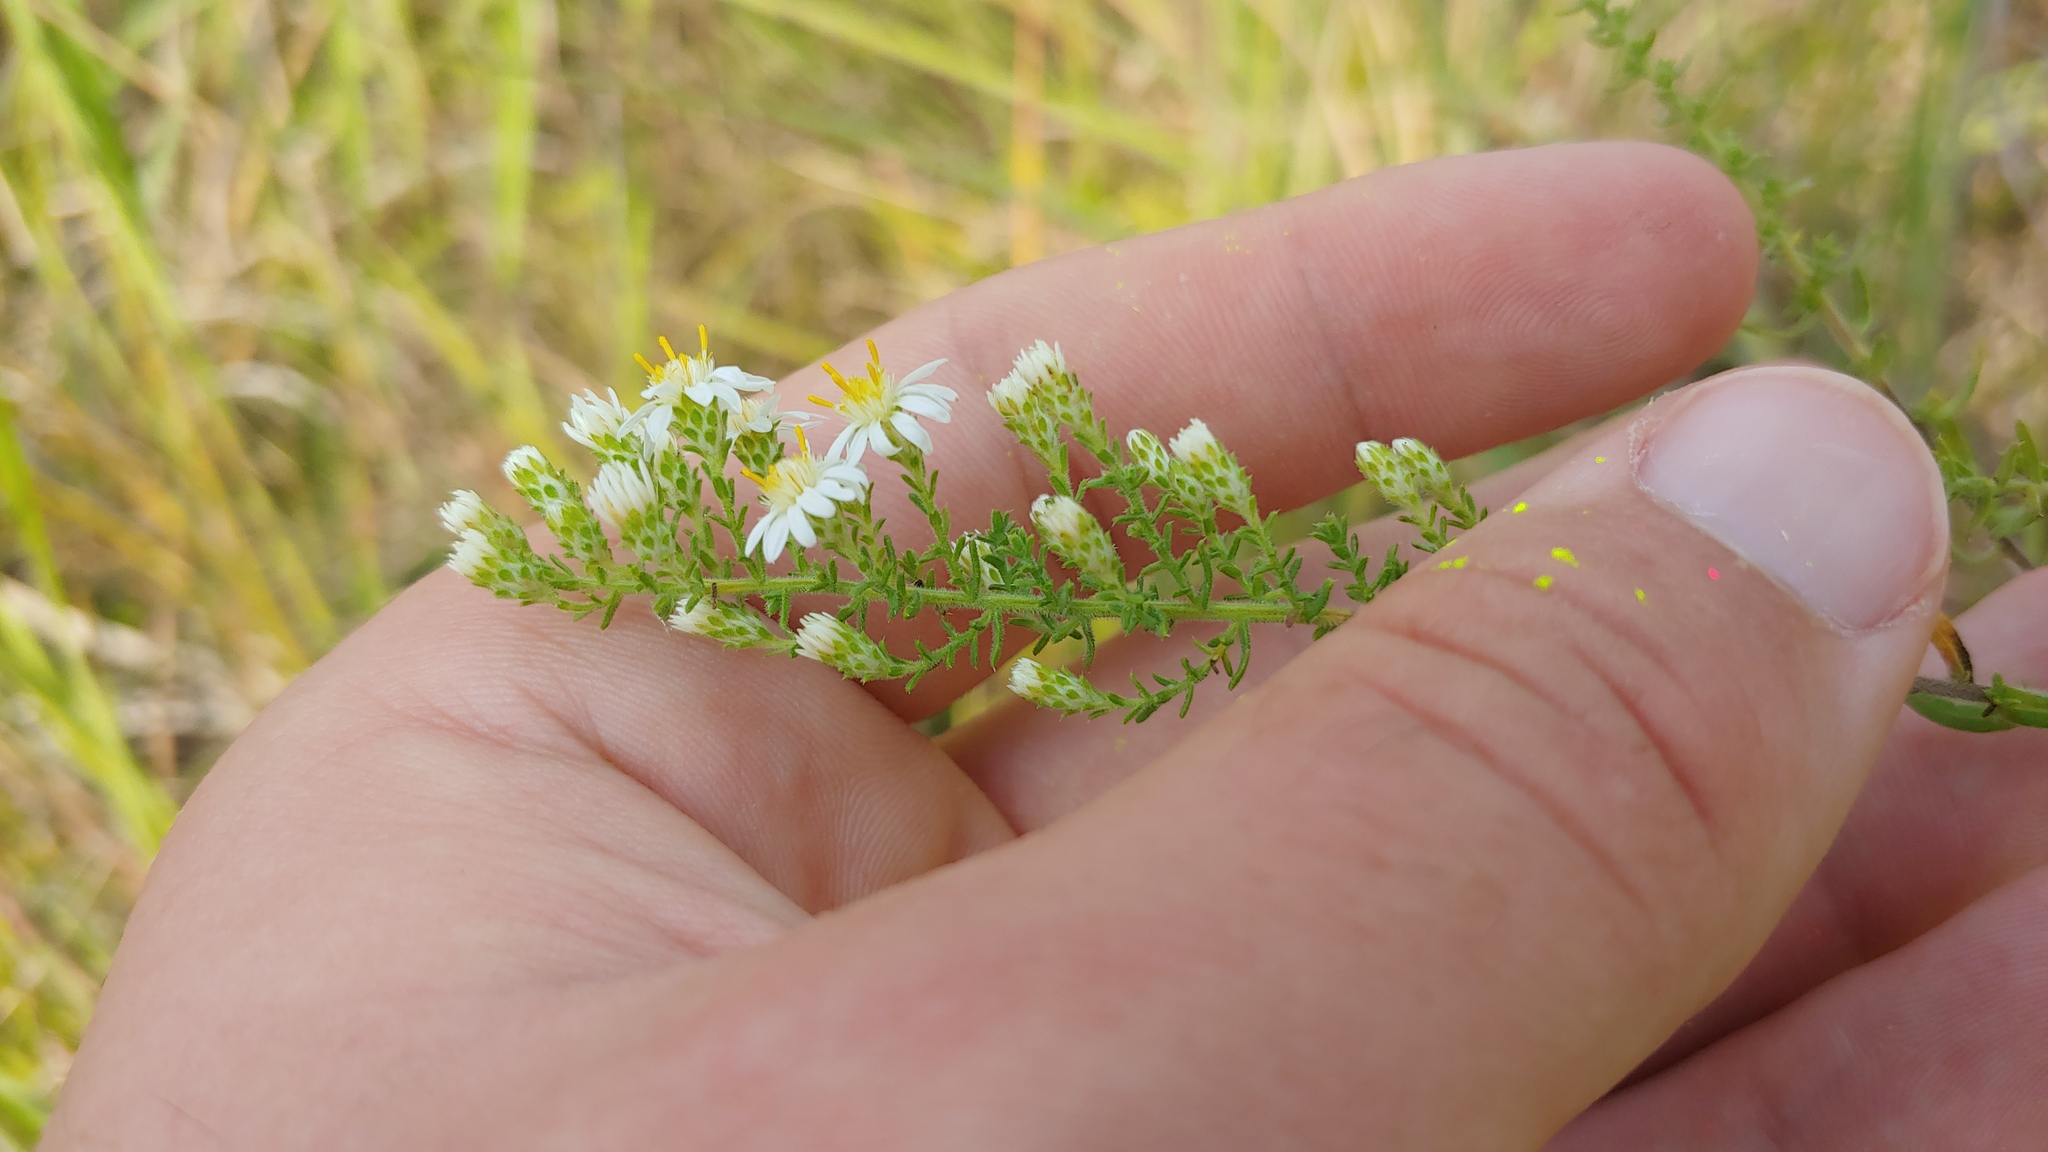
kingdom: Plantae
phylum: Tracheophyta
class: Magnoliopsida
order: Asterales
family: Asteraceae
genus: Symphyotrichum
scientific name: Symphyotrichum ericoides
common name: Heath aster
